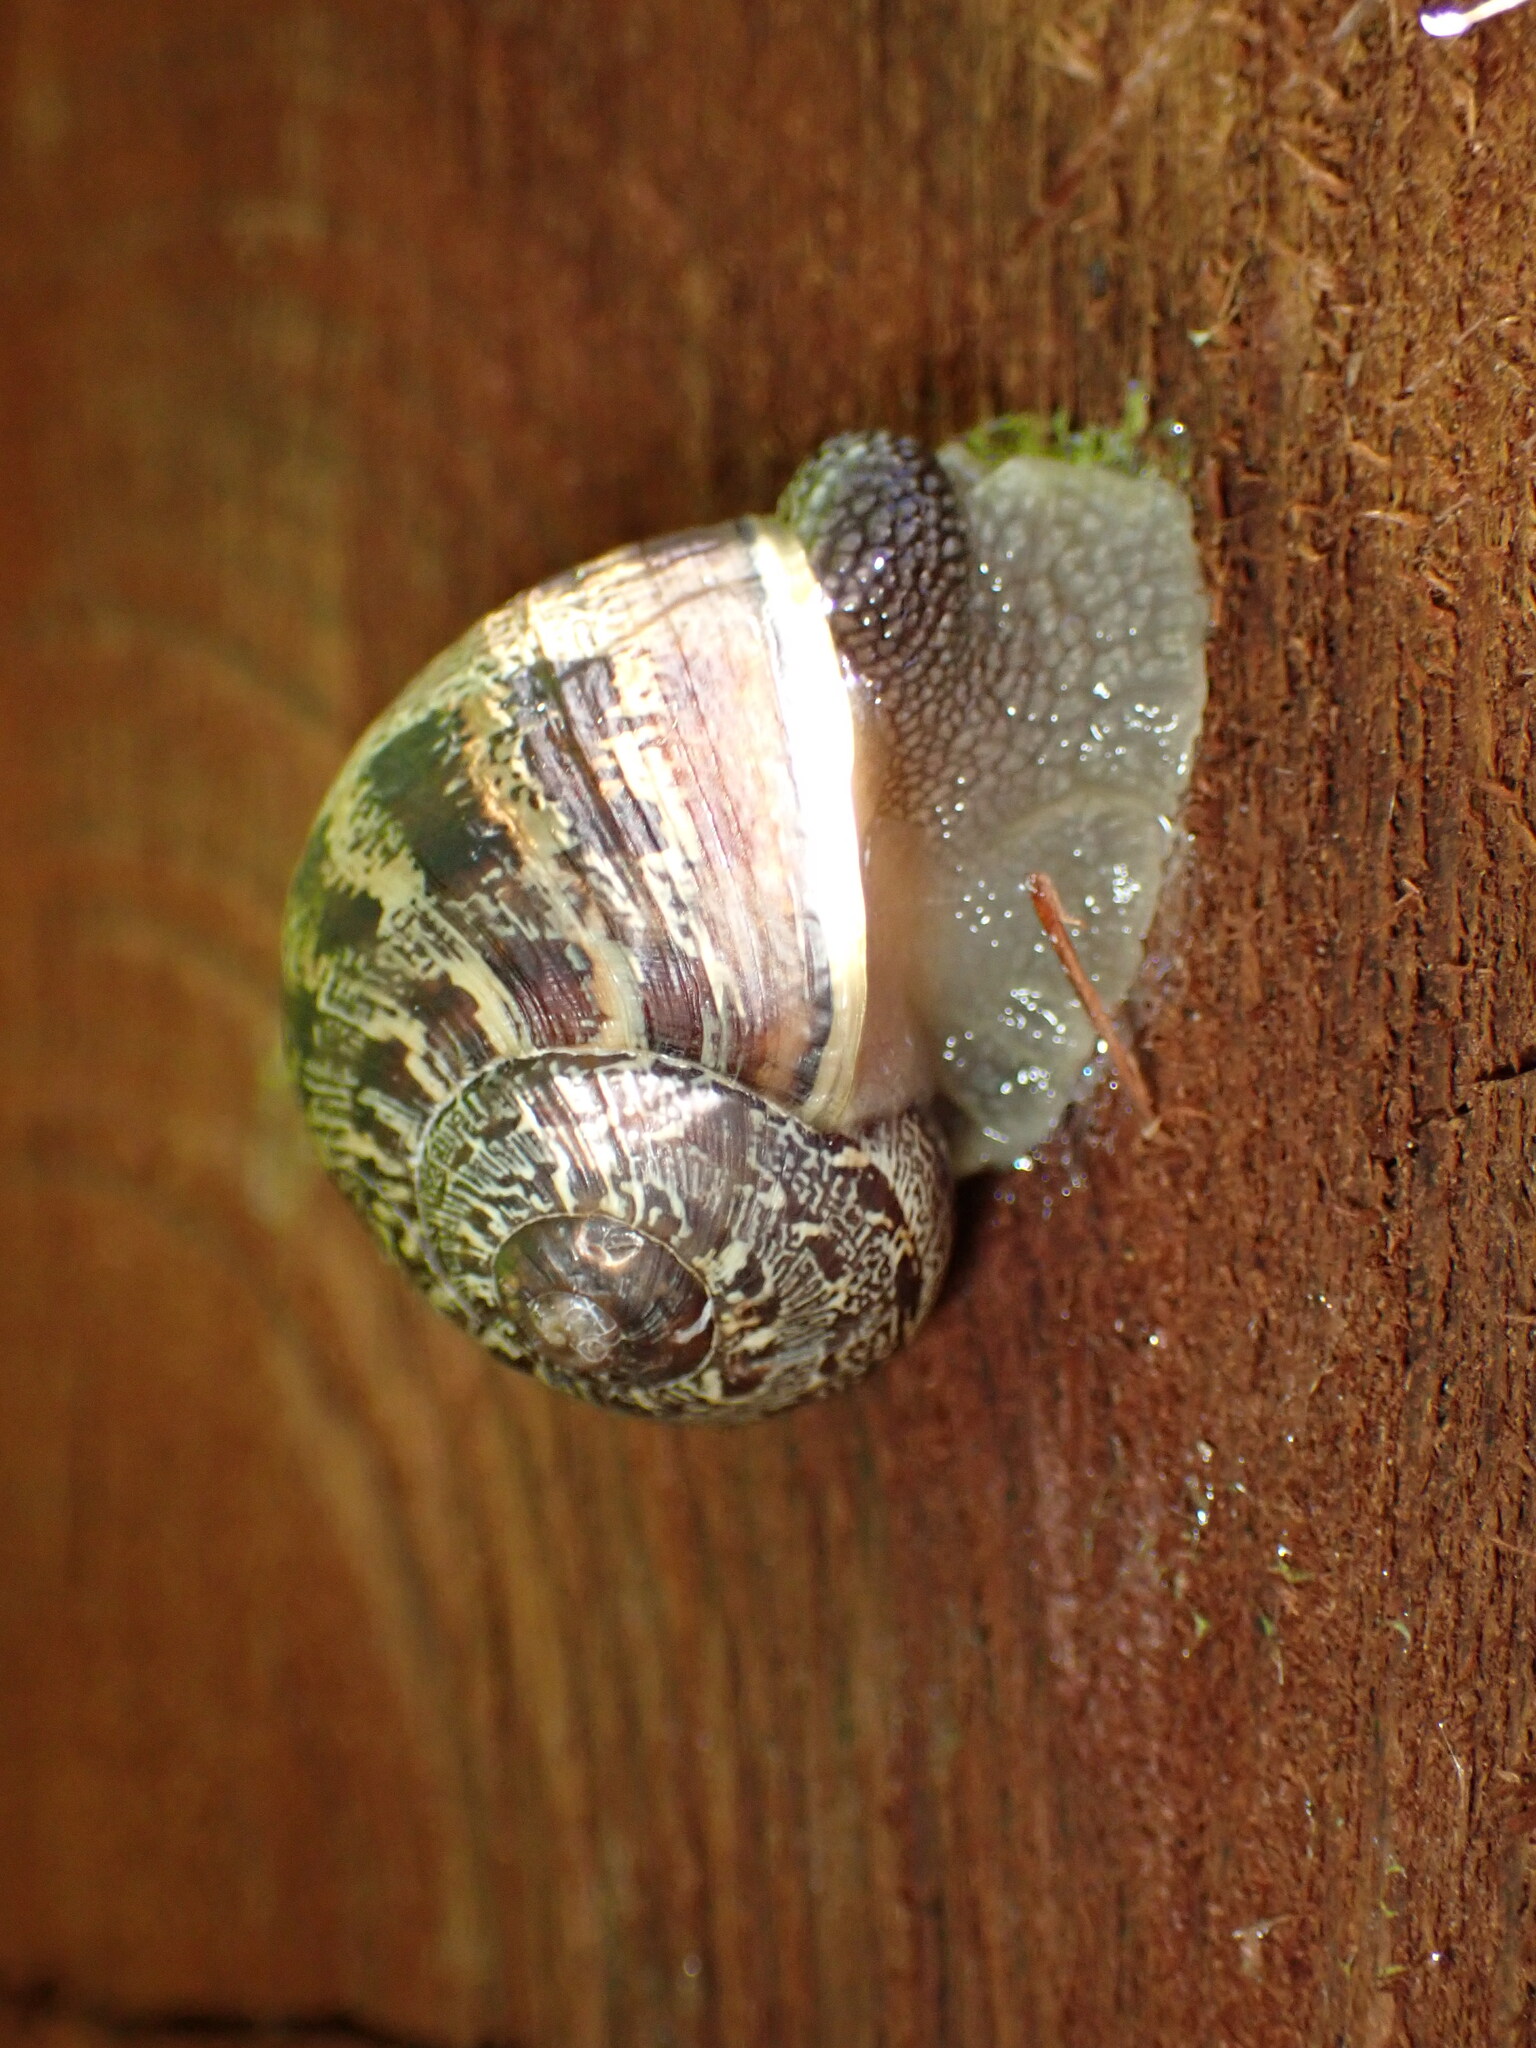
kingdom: Animalia
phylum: Mollusca
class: Gastropoda
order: Stylommatophora
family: Helicidae
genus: Cornu
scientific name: Cornu aspersum
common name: Brown garden snail
